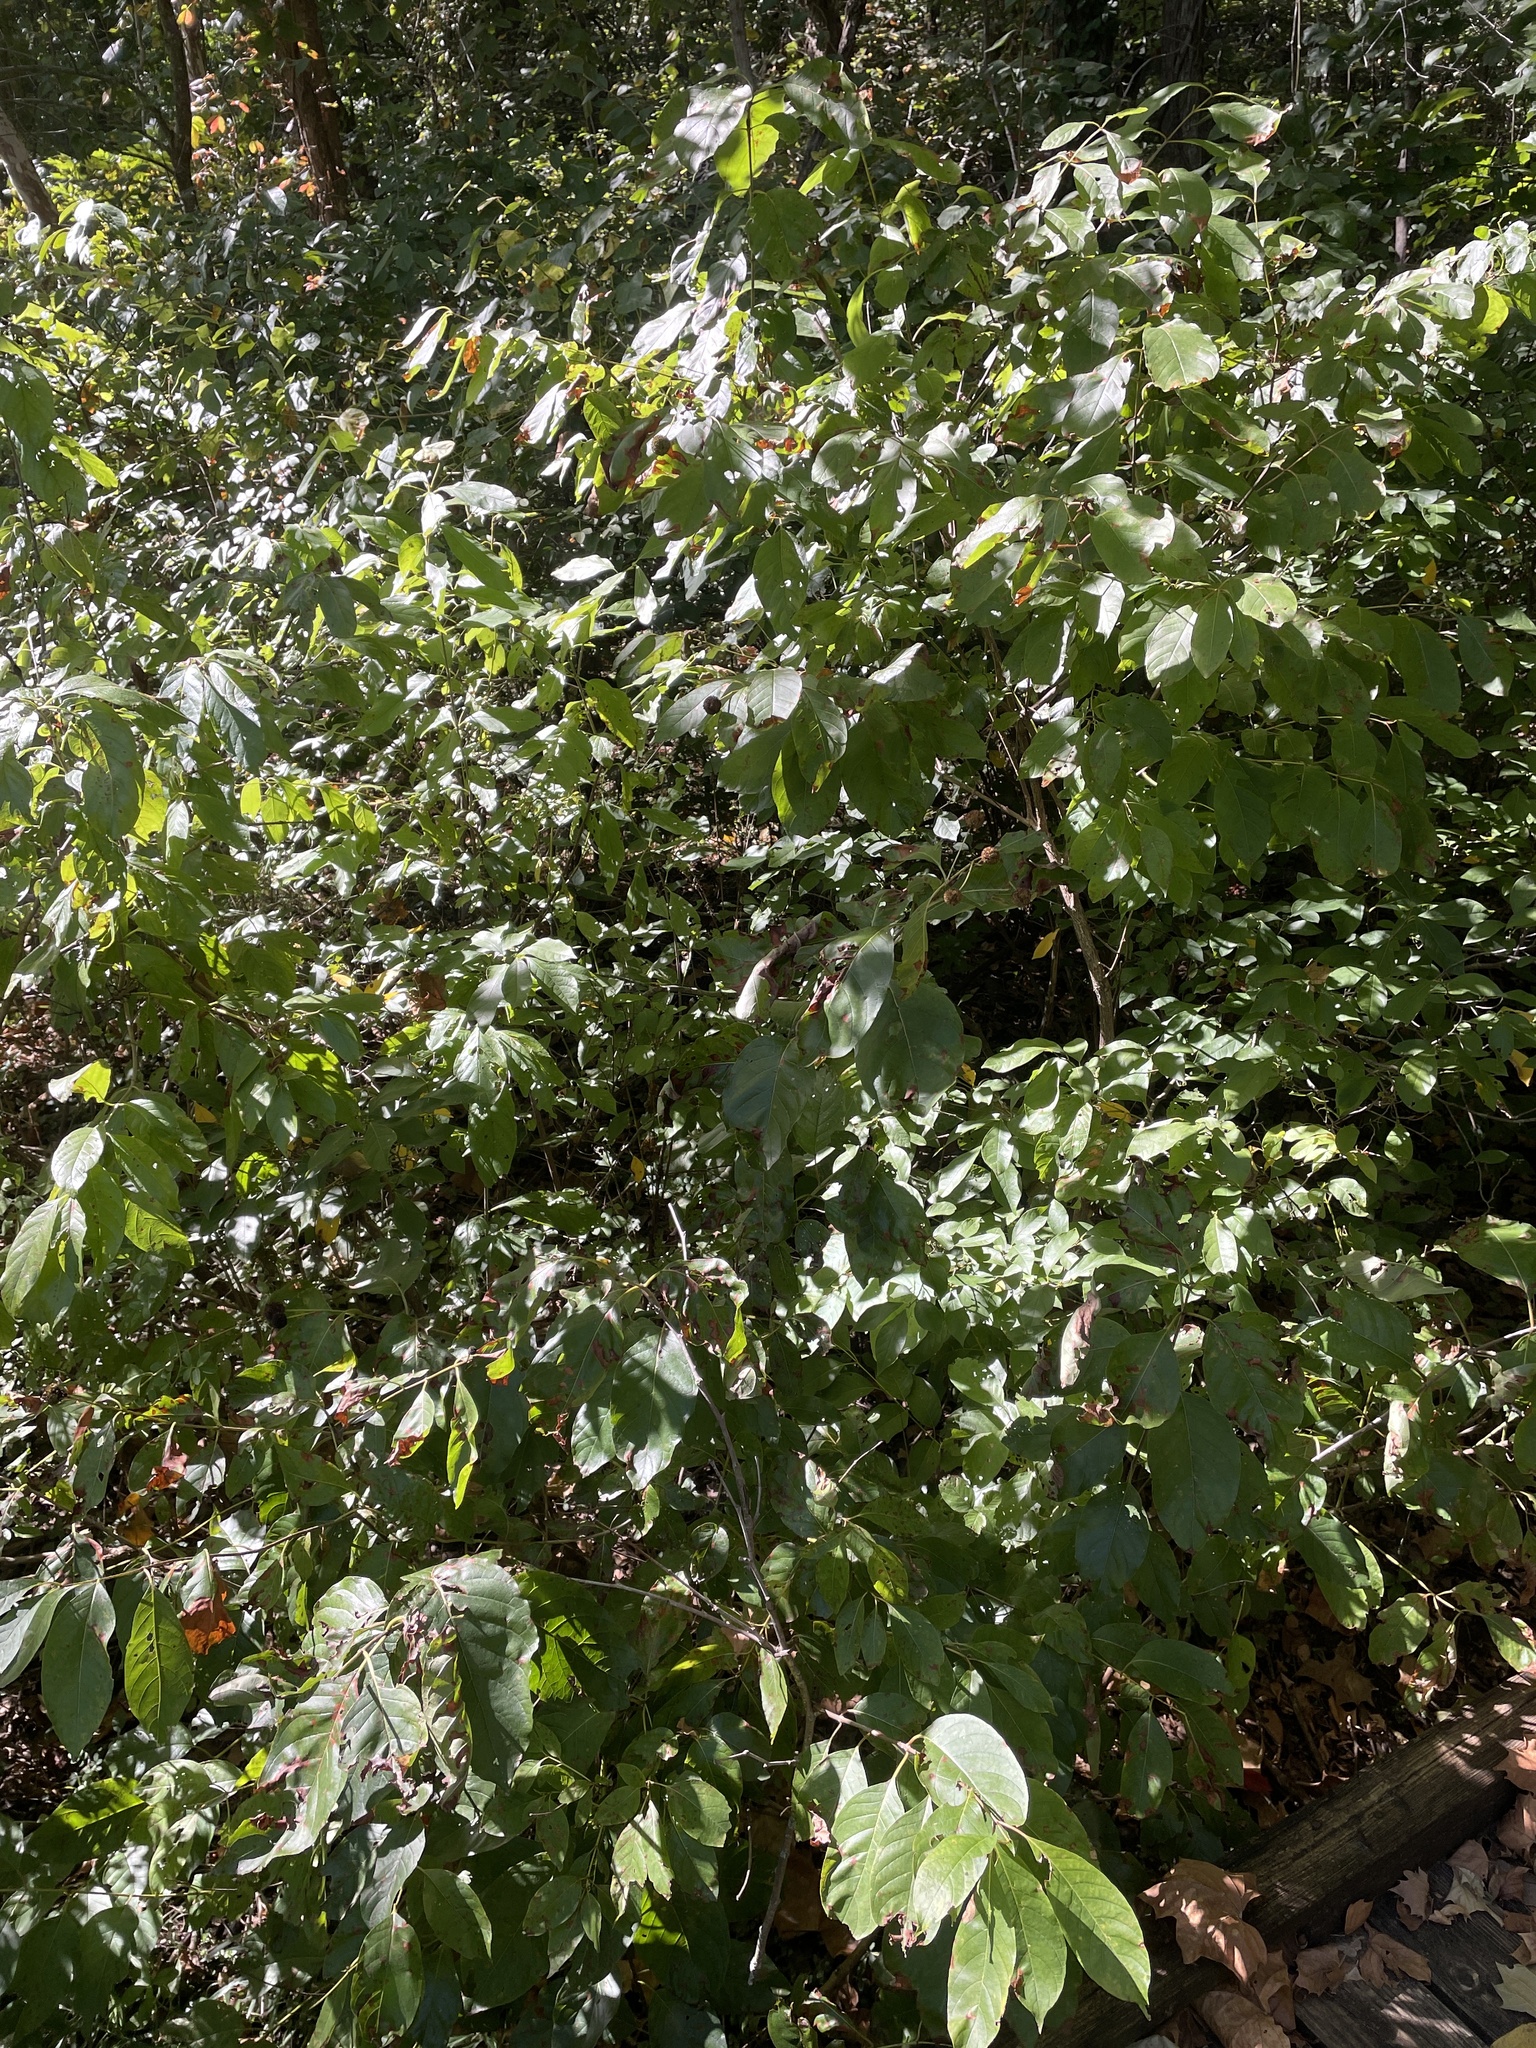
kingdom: Plantae
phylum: Tracheophyta
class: Magnoliopsida
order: Gentianales
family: Rubiaceae
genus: Cephalanthus
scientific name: Cephalanthus occidentalis
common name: Button-willow
